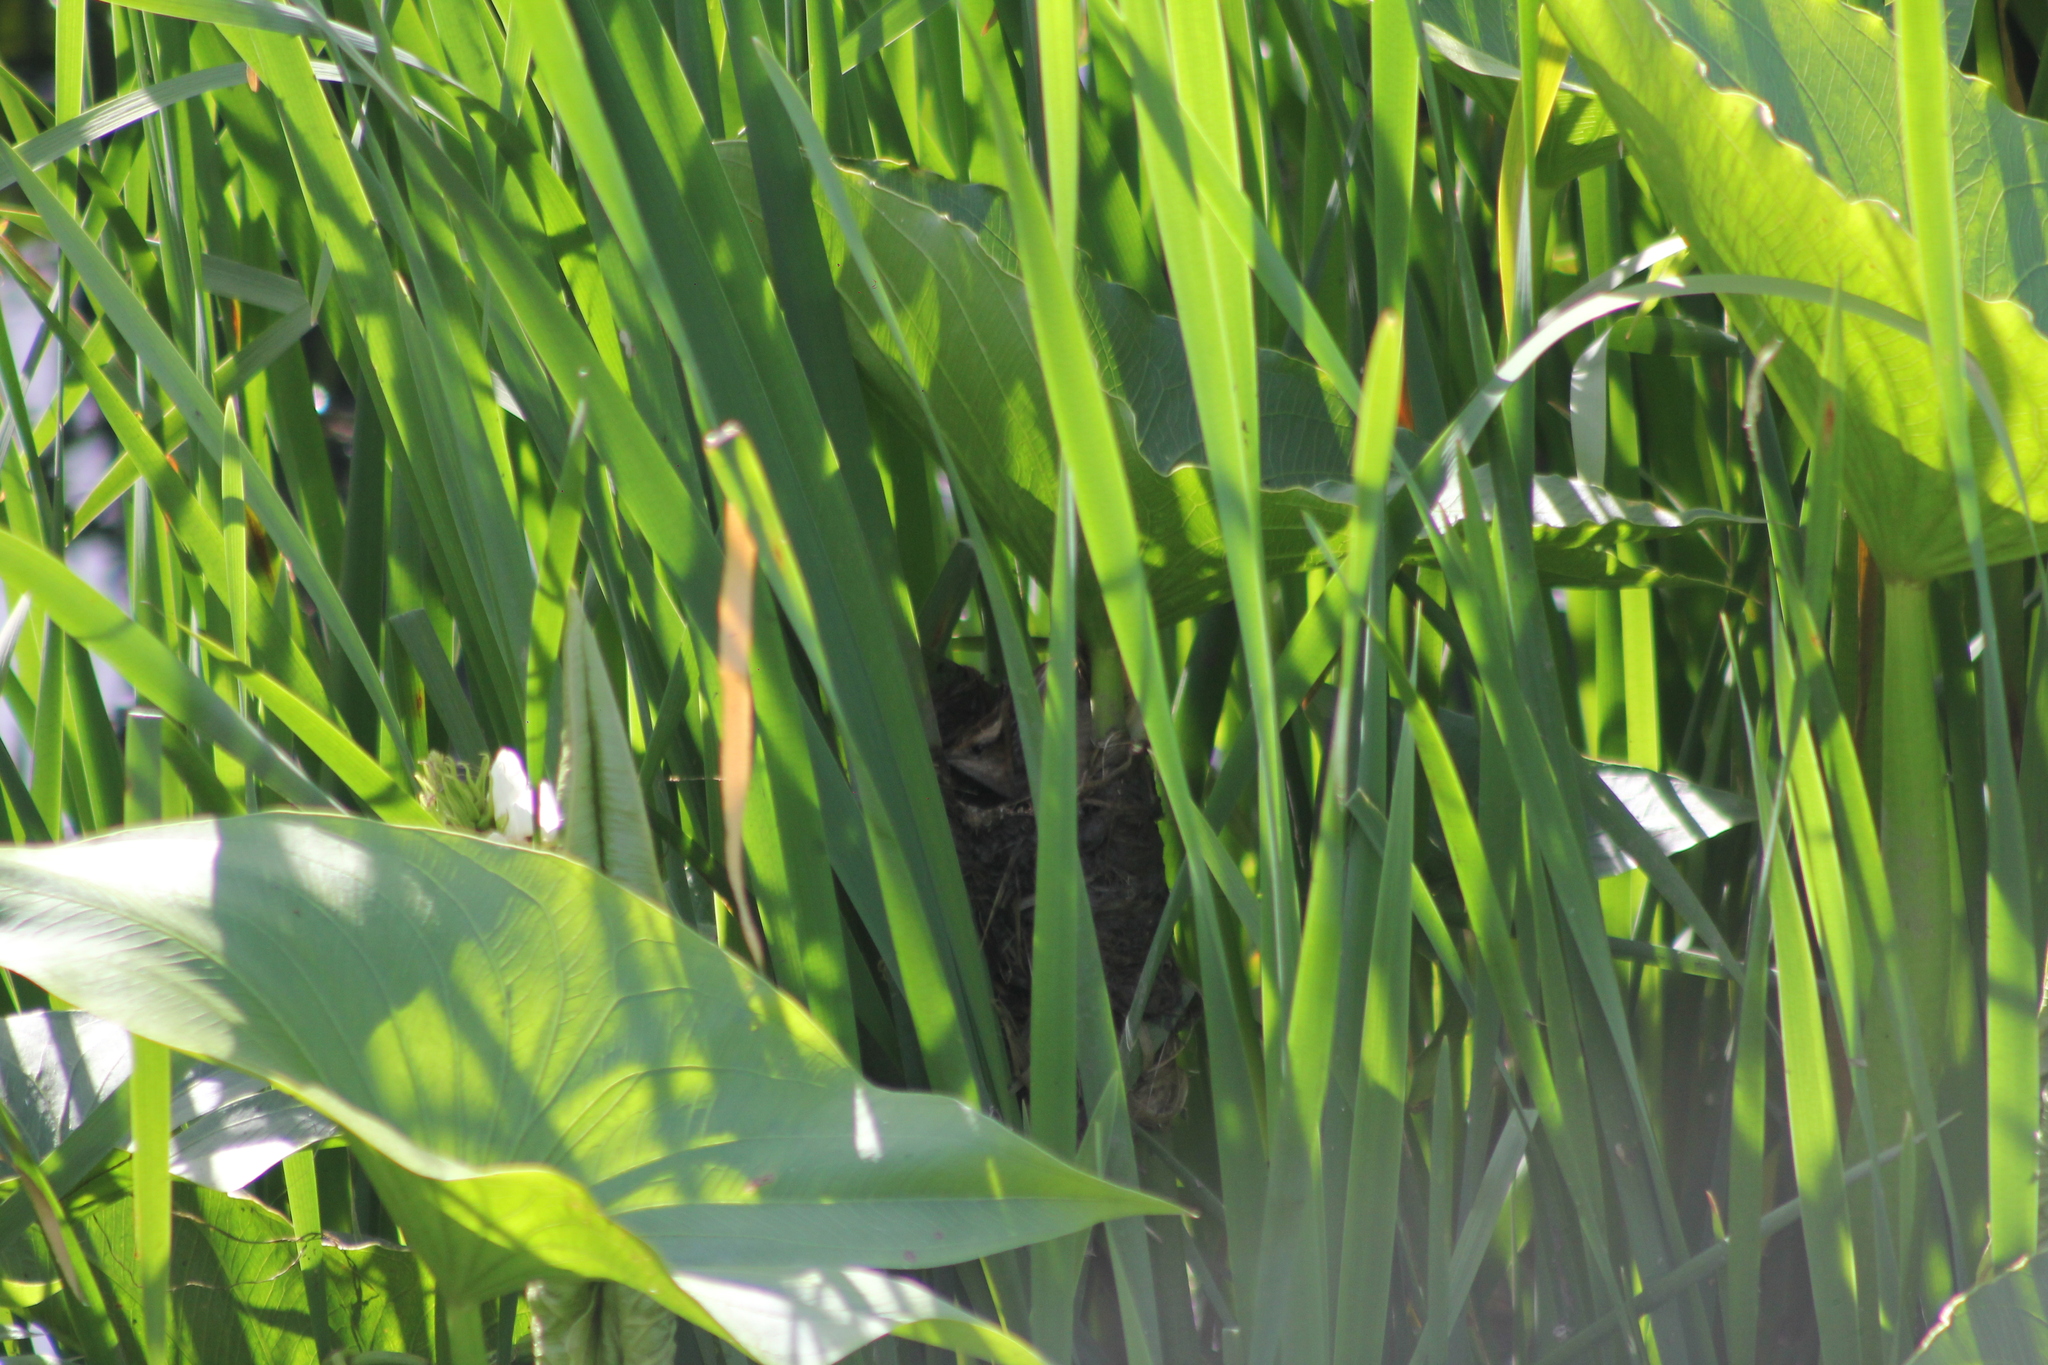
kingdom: Animalia
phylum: Chordata
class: Aves
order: Passeriformes
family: Furnariidae
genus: Phleocryptes
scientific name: Phleocryptes melanops
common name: Wren-like rushbird
